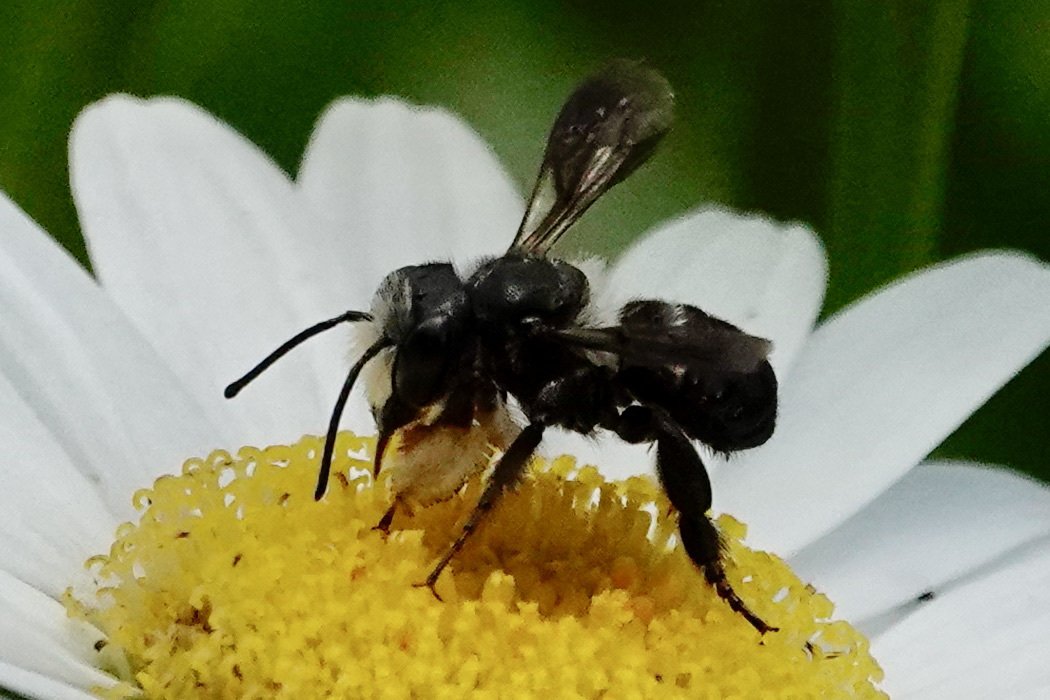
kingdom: Animalia
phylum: Arthropoda
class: Insecta
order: Hymenoptera
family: Megachilidae
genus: Megachile
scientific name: Megachile xylocopoides
